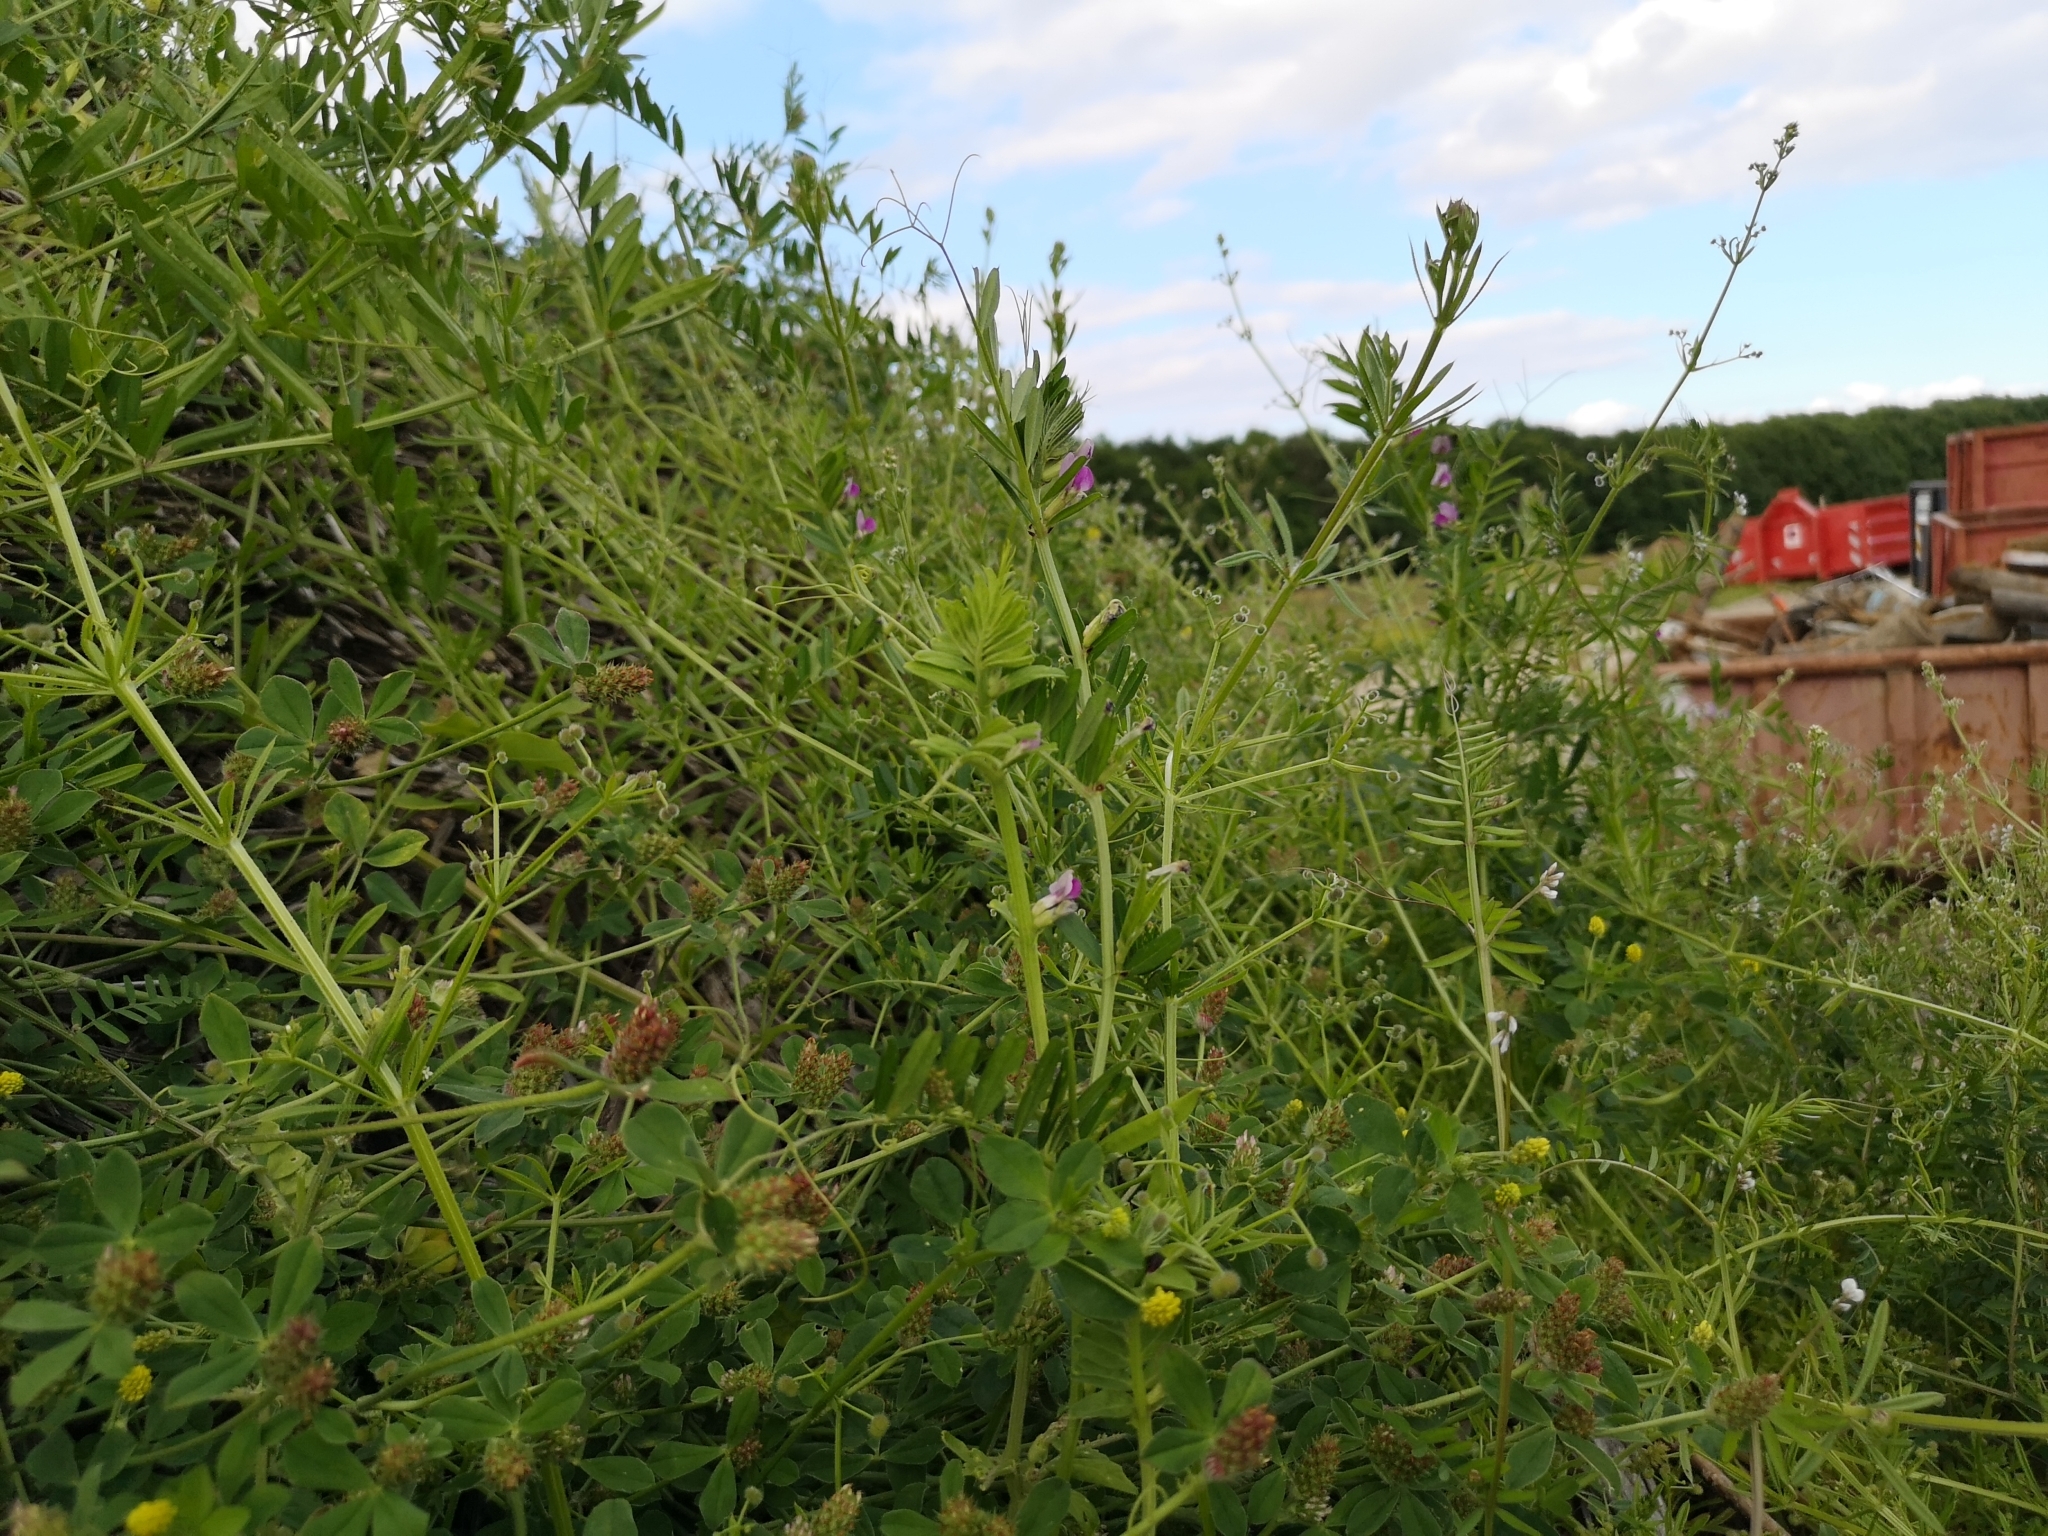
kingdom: Plantae
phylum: Tracheophyta
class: Magnoliopsida
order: Fabales
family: Fabaceae
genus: Vicia
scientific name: Vicia sativa
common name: Garden vetch
